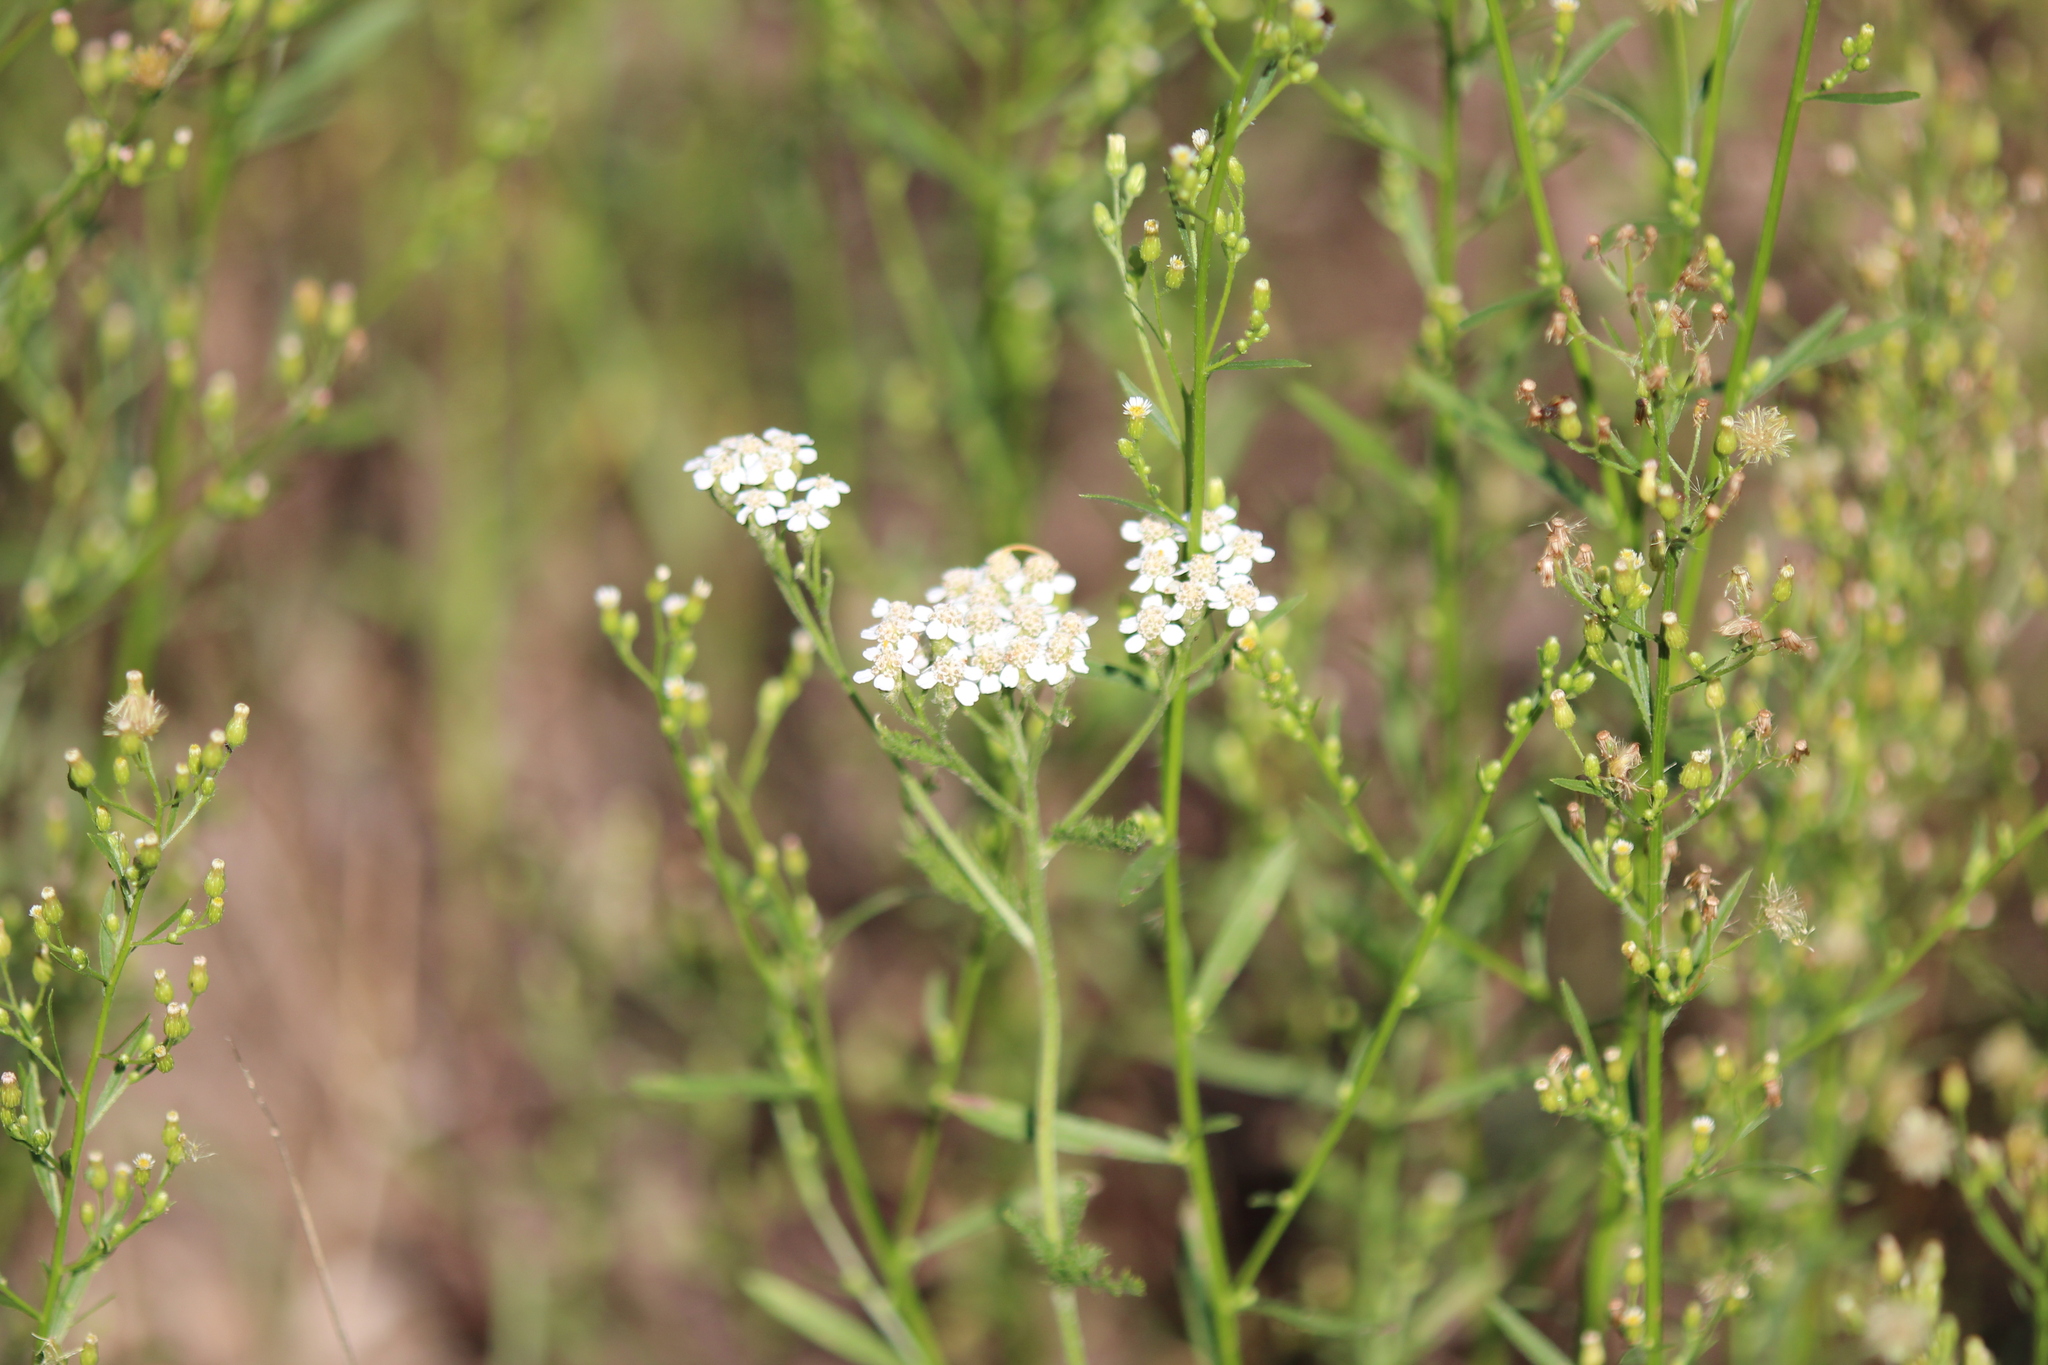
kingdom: Plantae
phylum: Tracheophyta
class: Magnoliopsida
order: Asterales
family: Asteraceae
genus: Achillea
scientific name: Achillea millefolium
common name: Yarrow
